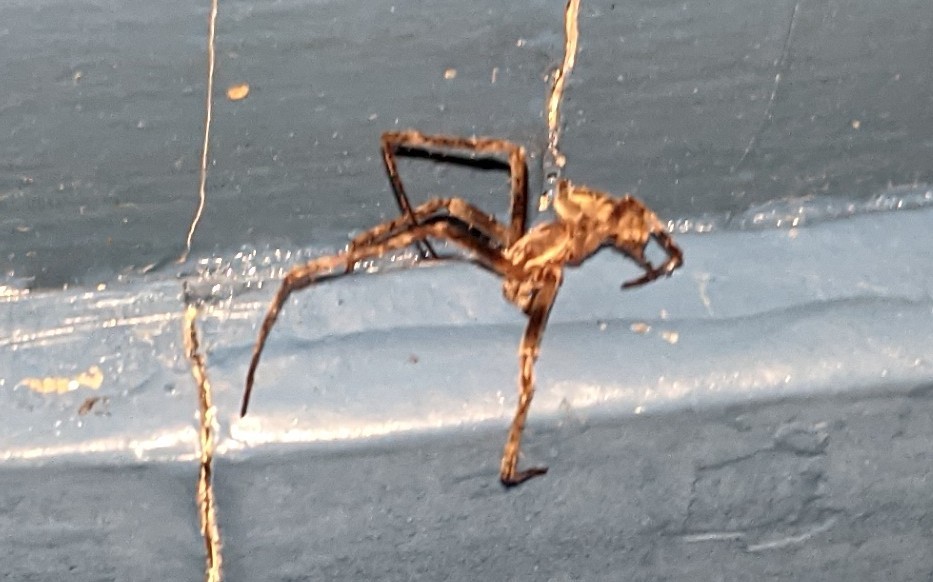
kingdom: Animalia
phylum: Arthropoda
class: Arachnida
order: Araneae
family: Araneidae
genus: Larinioides
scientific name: Larinioides sclopetarius
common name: Bridge orbweaver
